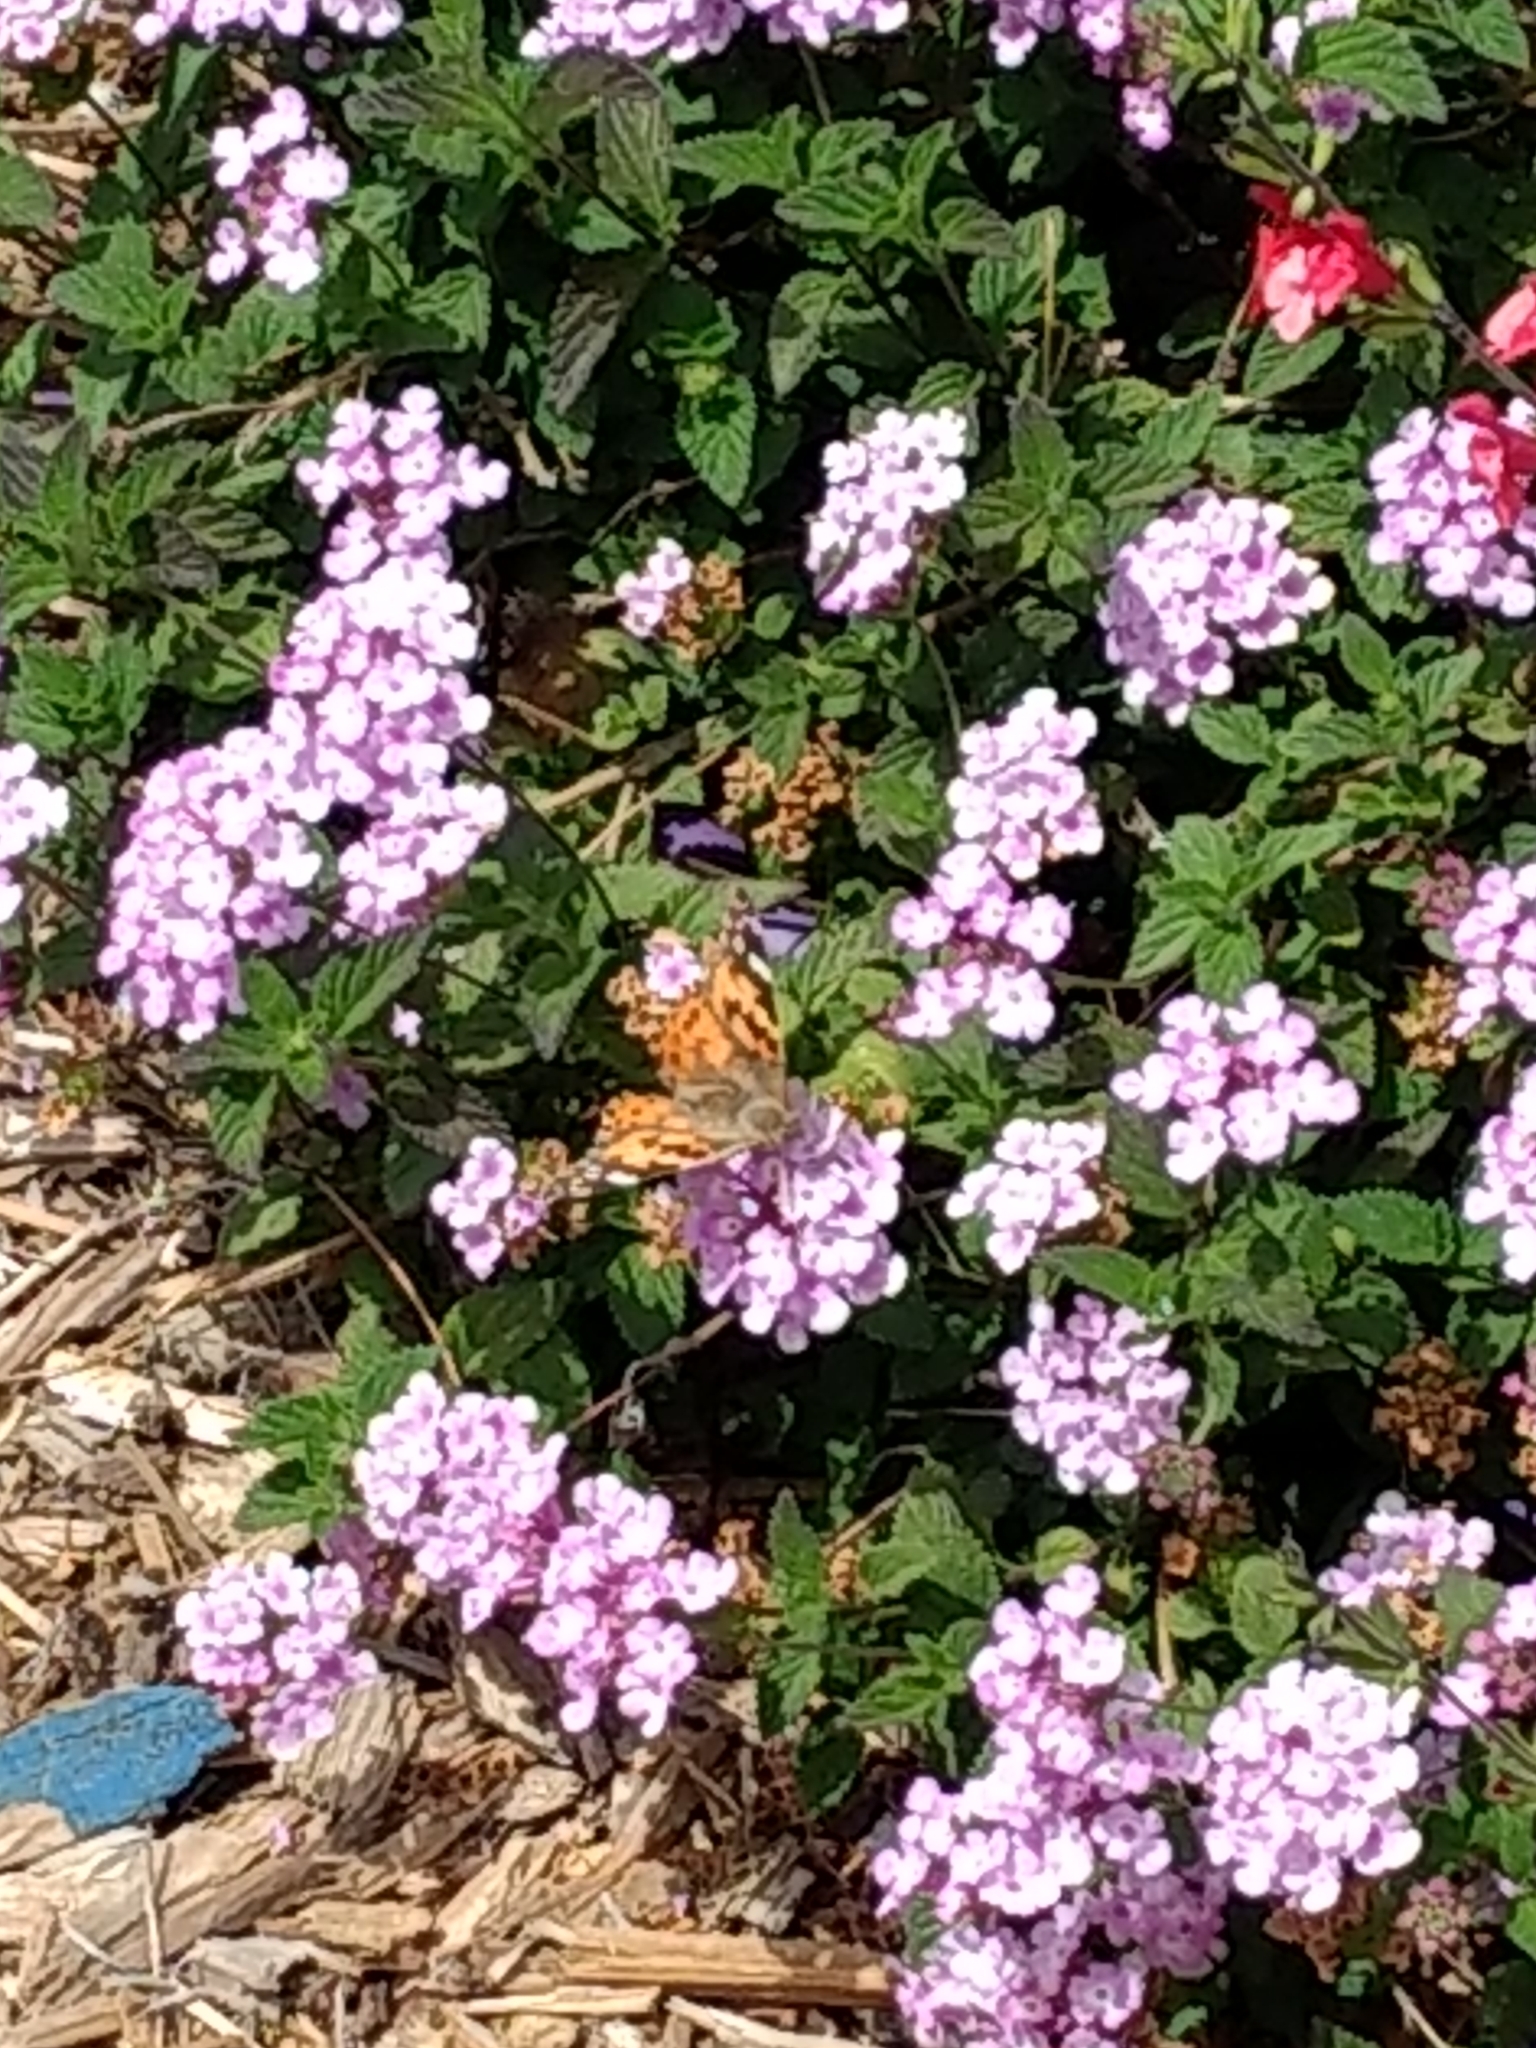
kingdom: Animalia
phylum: Arthropoda
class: Insecta
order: Lepidoptera
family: Nymphalidae
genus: Vanessa
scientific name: Vanessa cardui
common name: Painted lady
